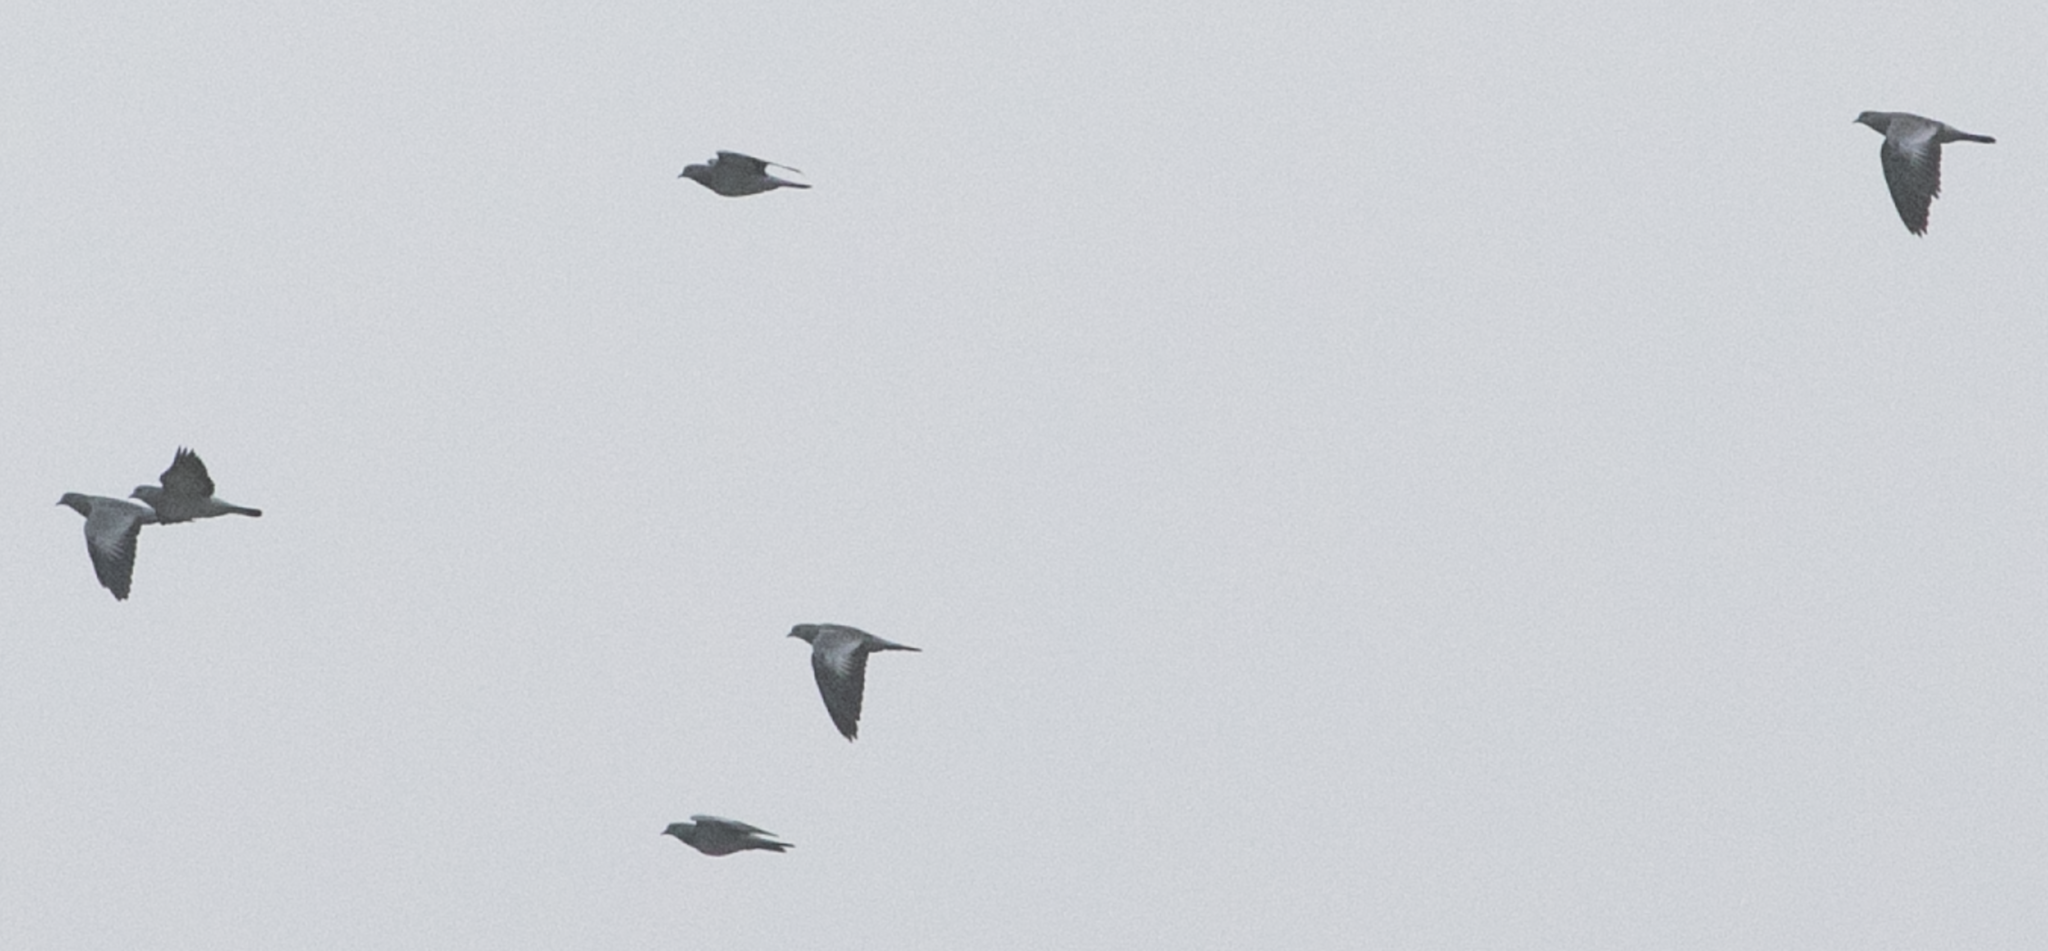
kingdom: Animalia
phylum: Chordata
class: Aves
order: Columbiformes
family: Columbidae
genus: Columba
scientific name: Columba oenas
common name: Stock dove
